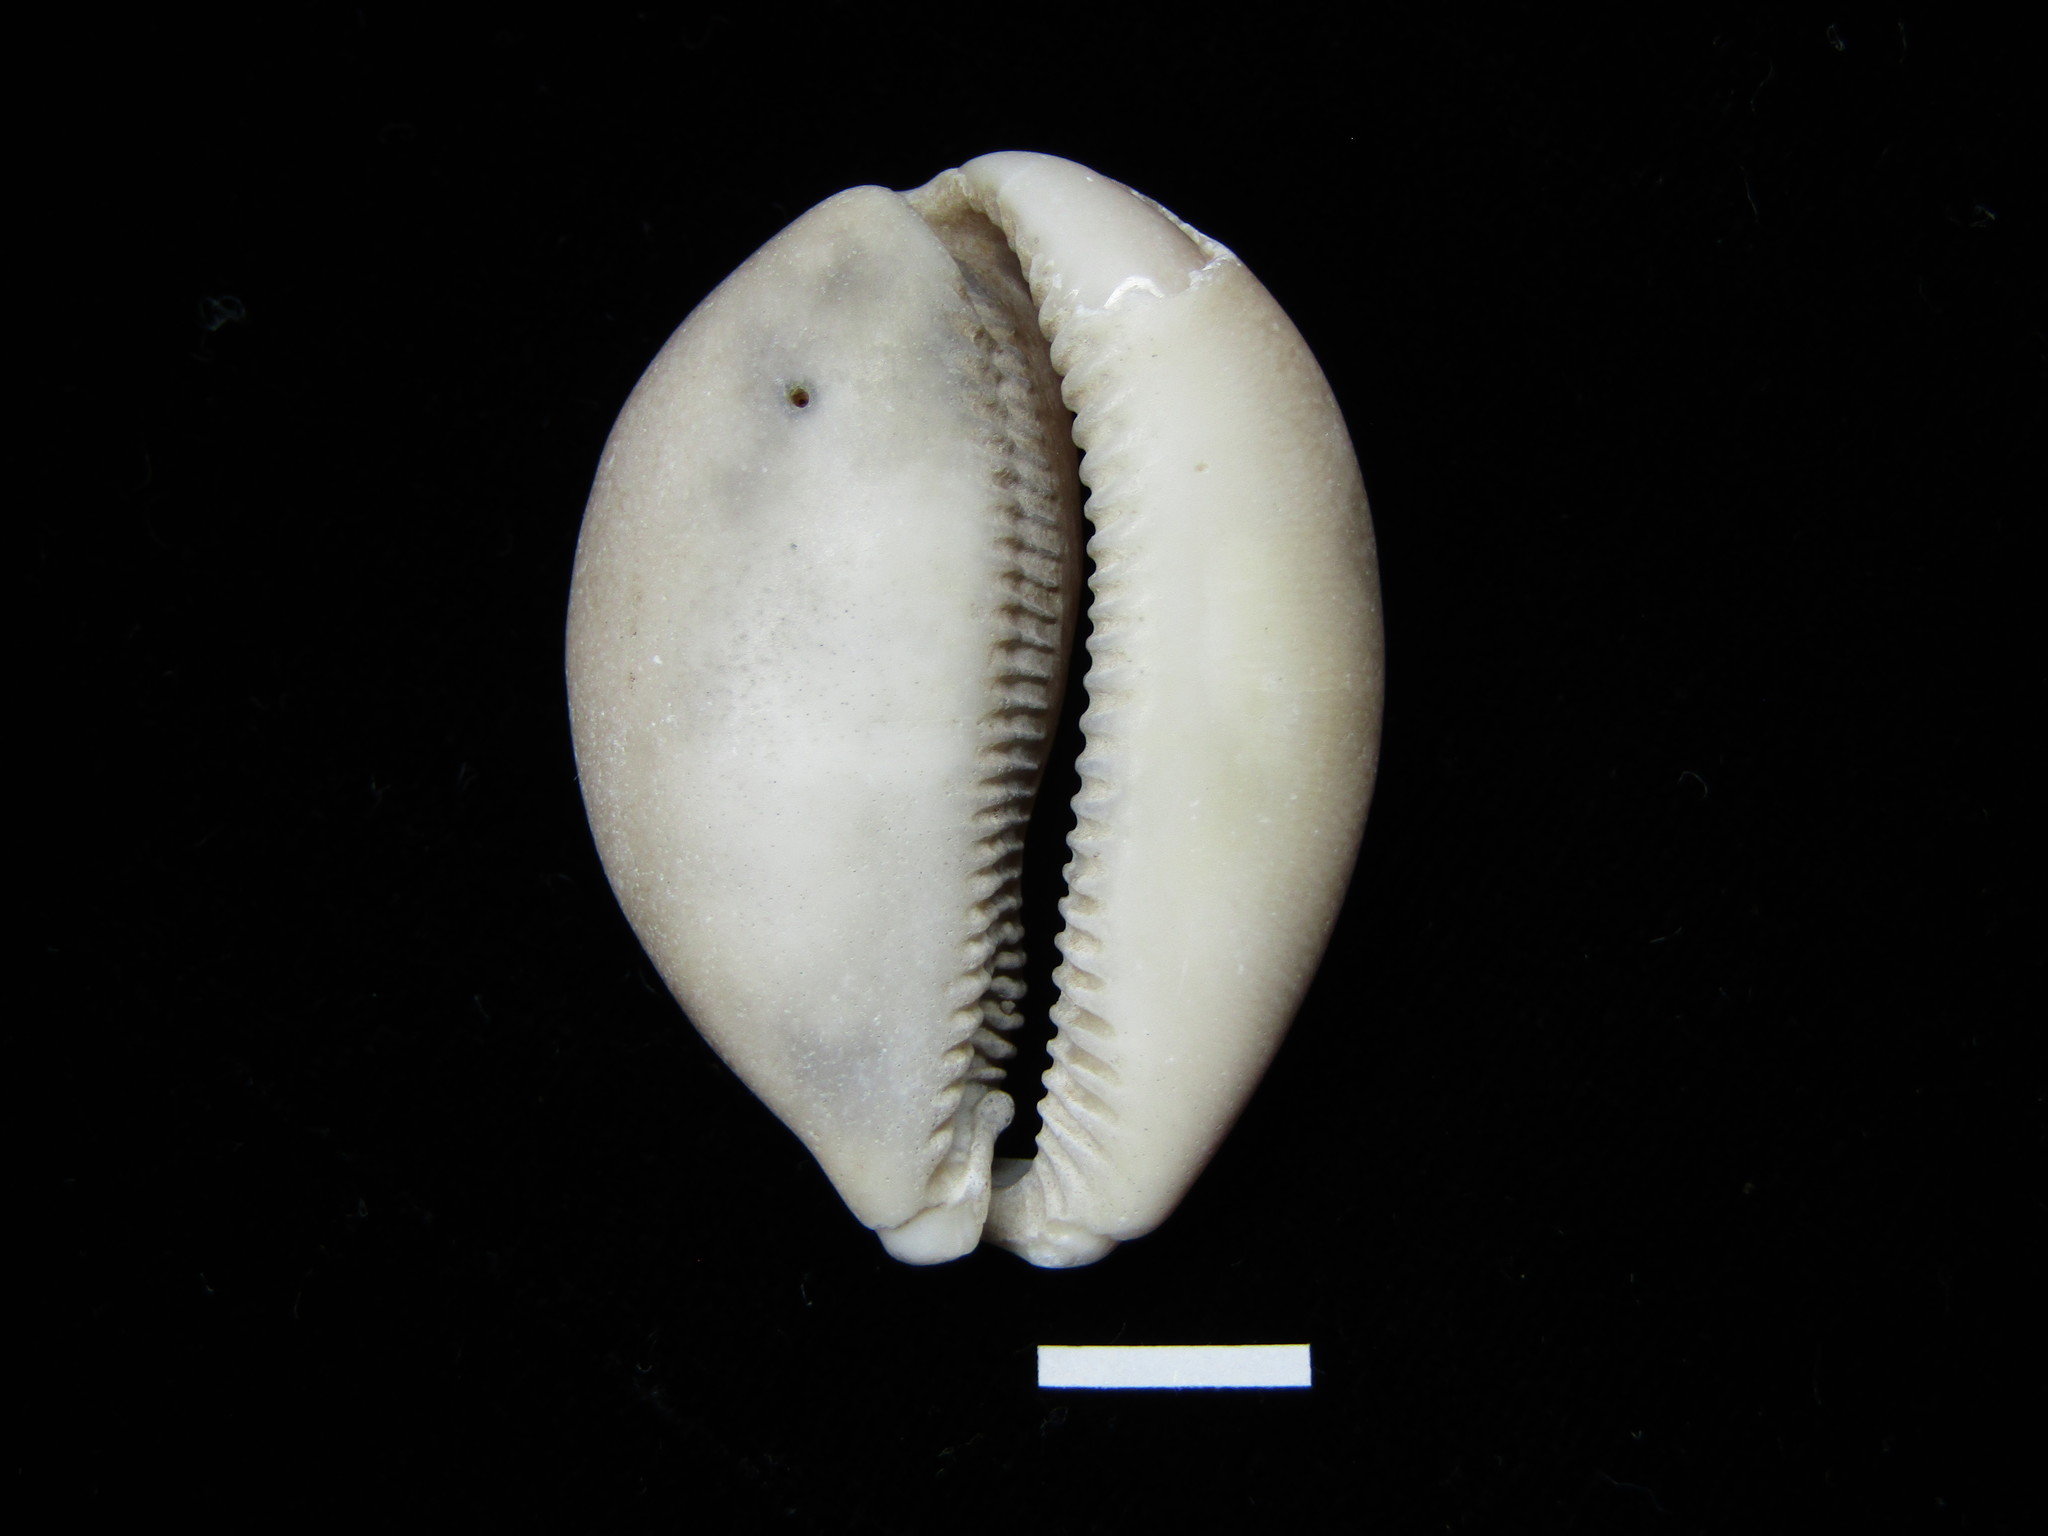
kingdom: Animalia
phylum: Mollusca
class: Gastropoda
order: Littorinimorpha
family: Cypraeidae
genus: Lyncina
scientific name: Lyncina kuroharai
